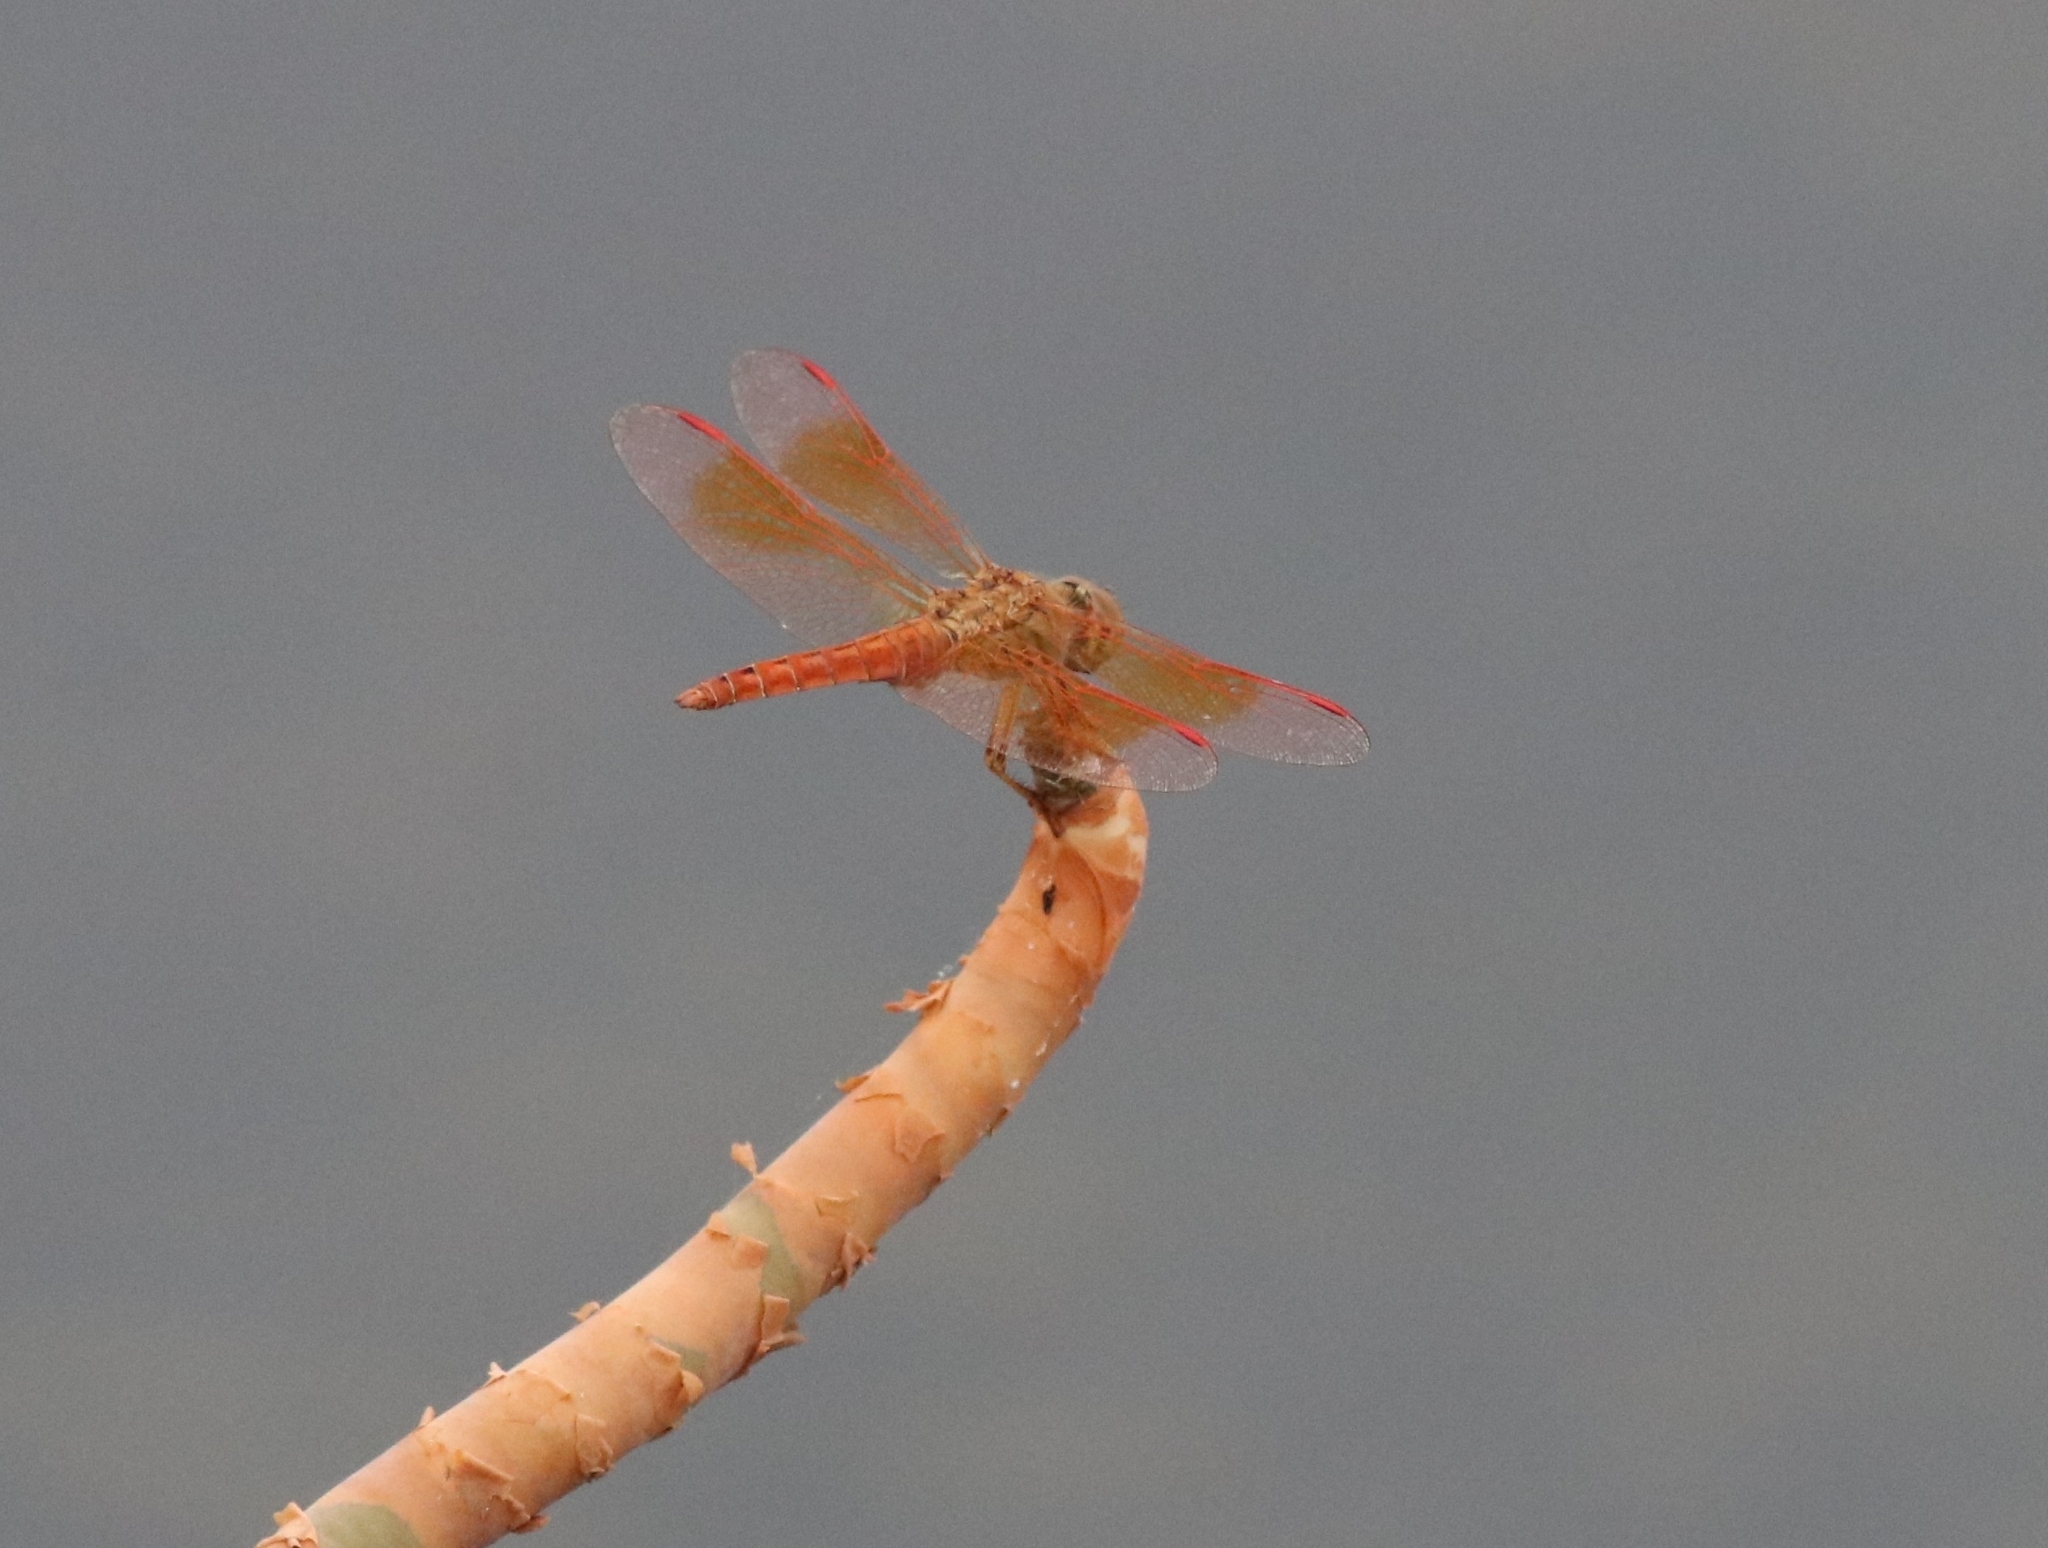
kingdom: Animalia
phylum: Arthropoda
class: Insecta
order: Odonata
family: Libellulidae
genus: Brachythemis
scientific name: Brachythemis contaminata
